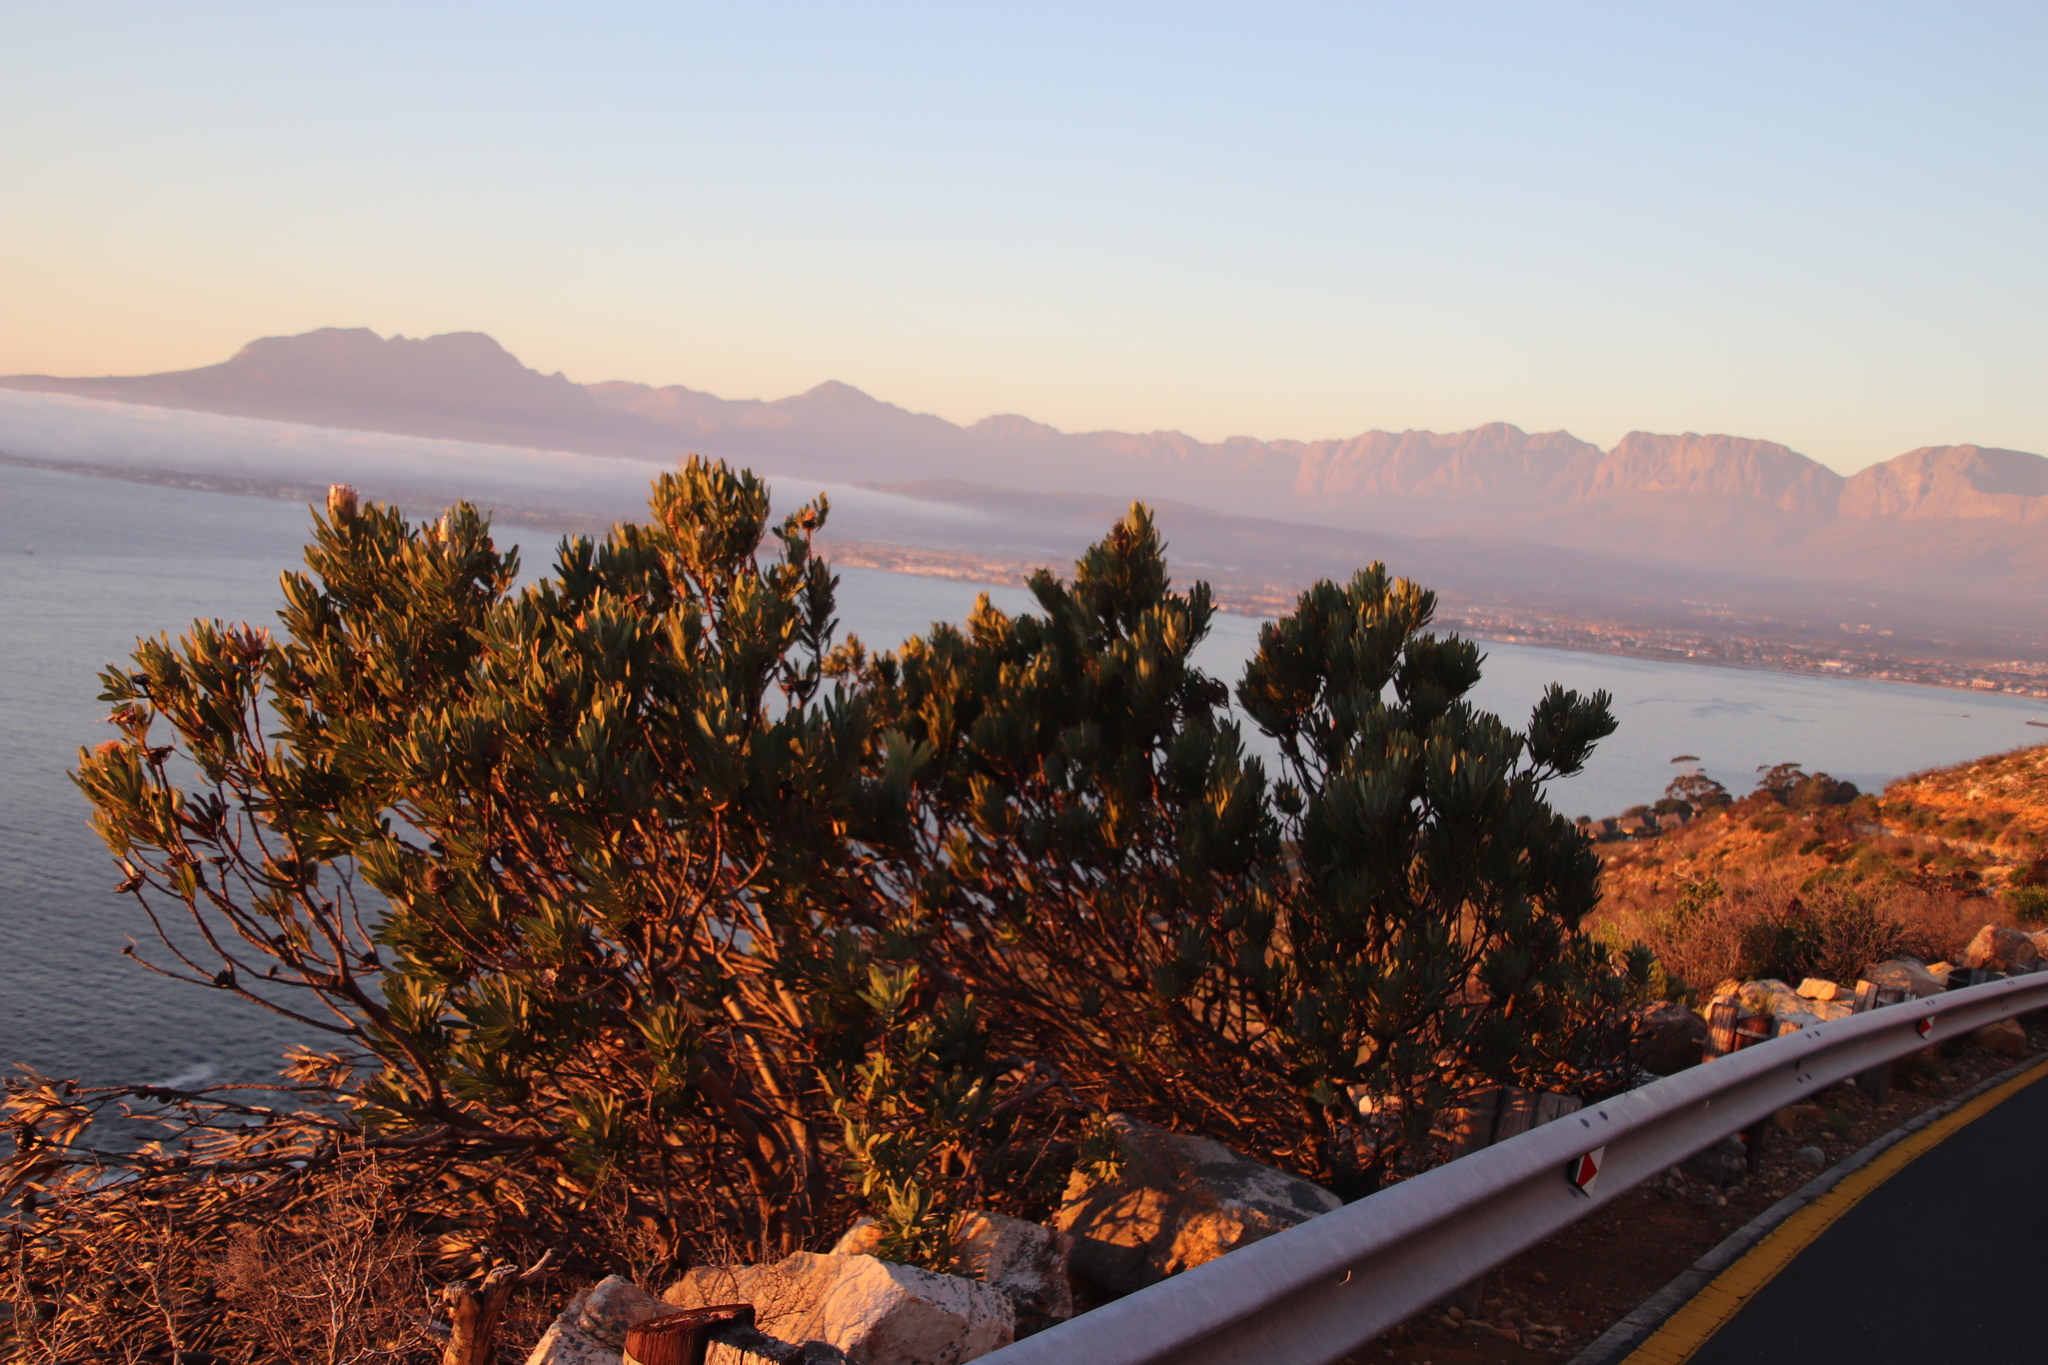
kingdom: Plantae
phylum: Tracheophyta
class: Magnoliopsida
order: Proteales
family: Proteaceae
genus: Protea
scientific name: Protea neriifolia
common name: Blue sugarbush
